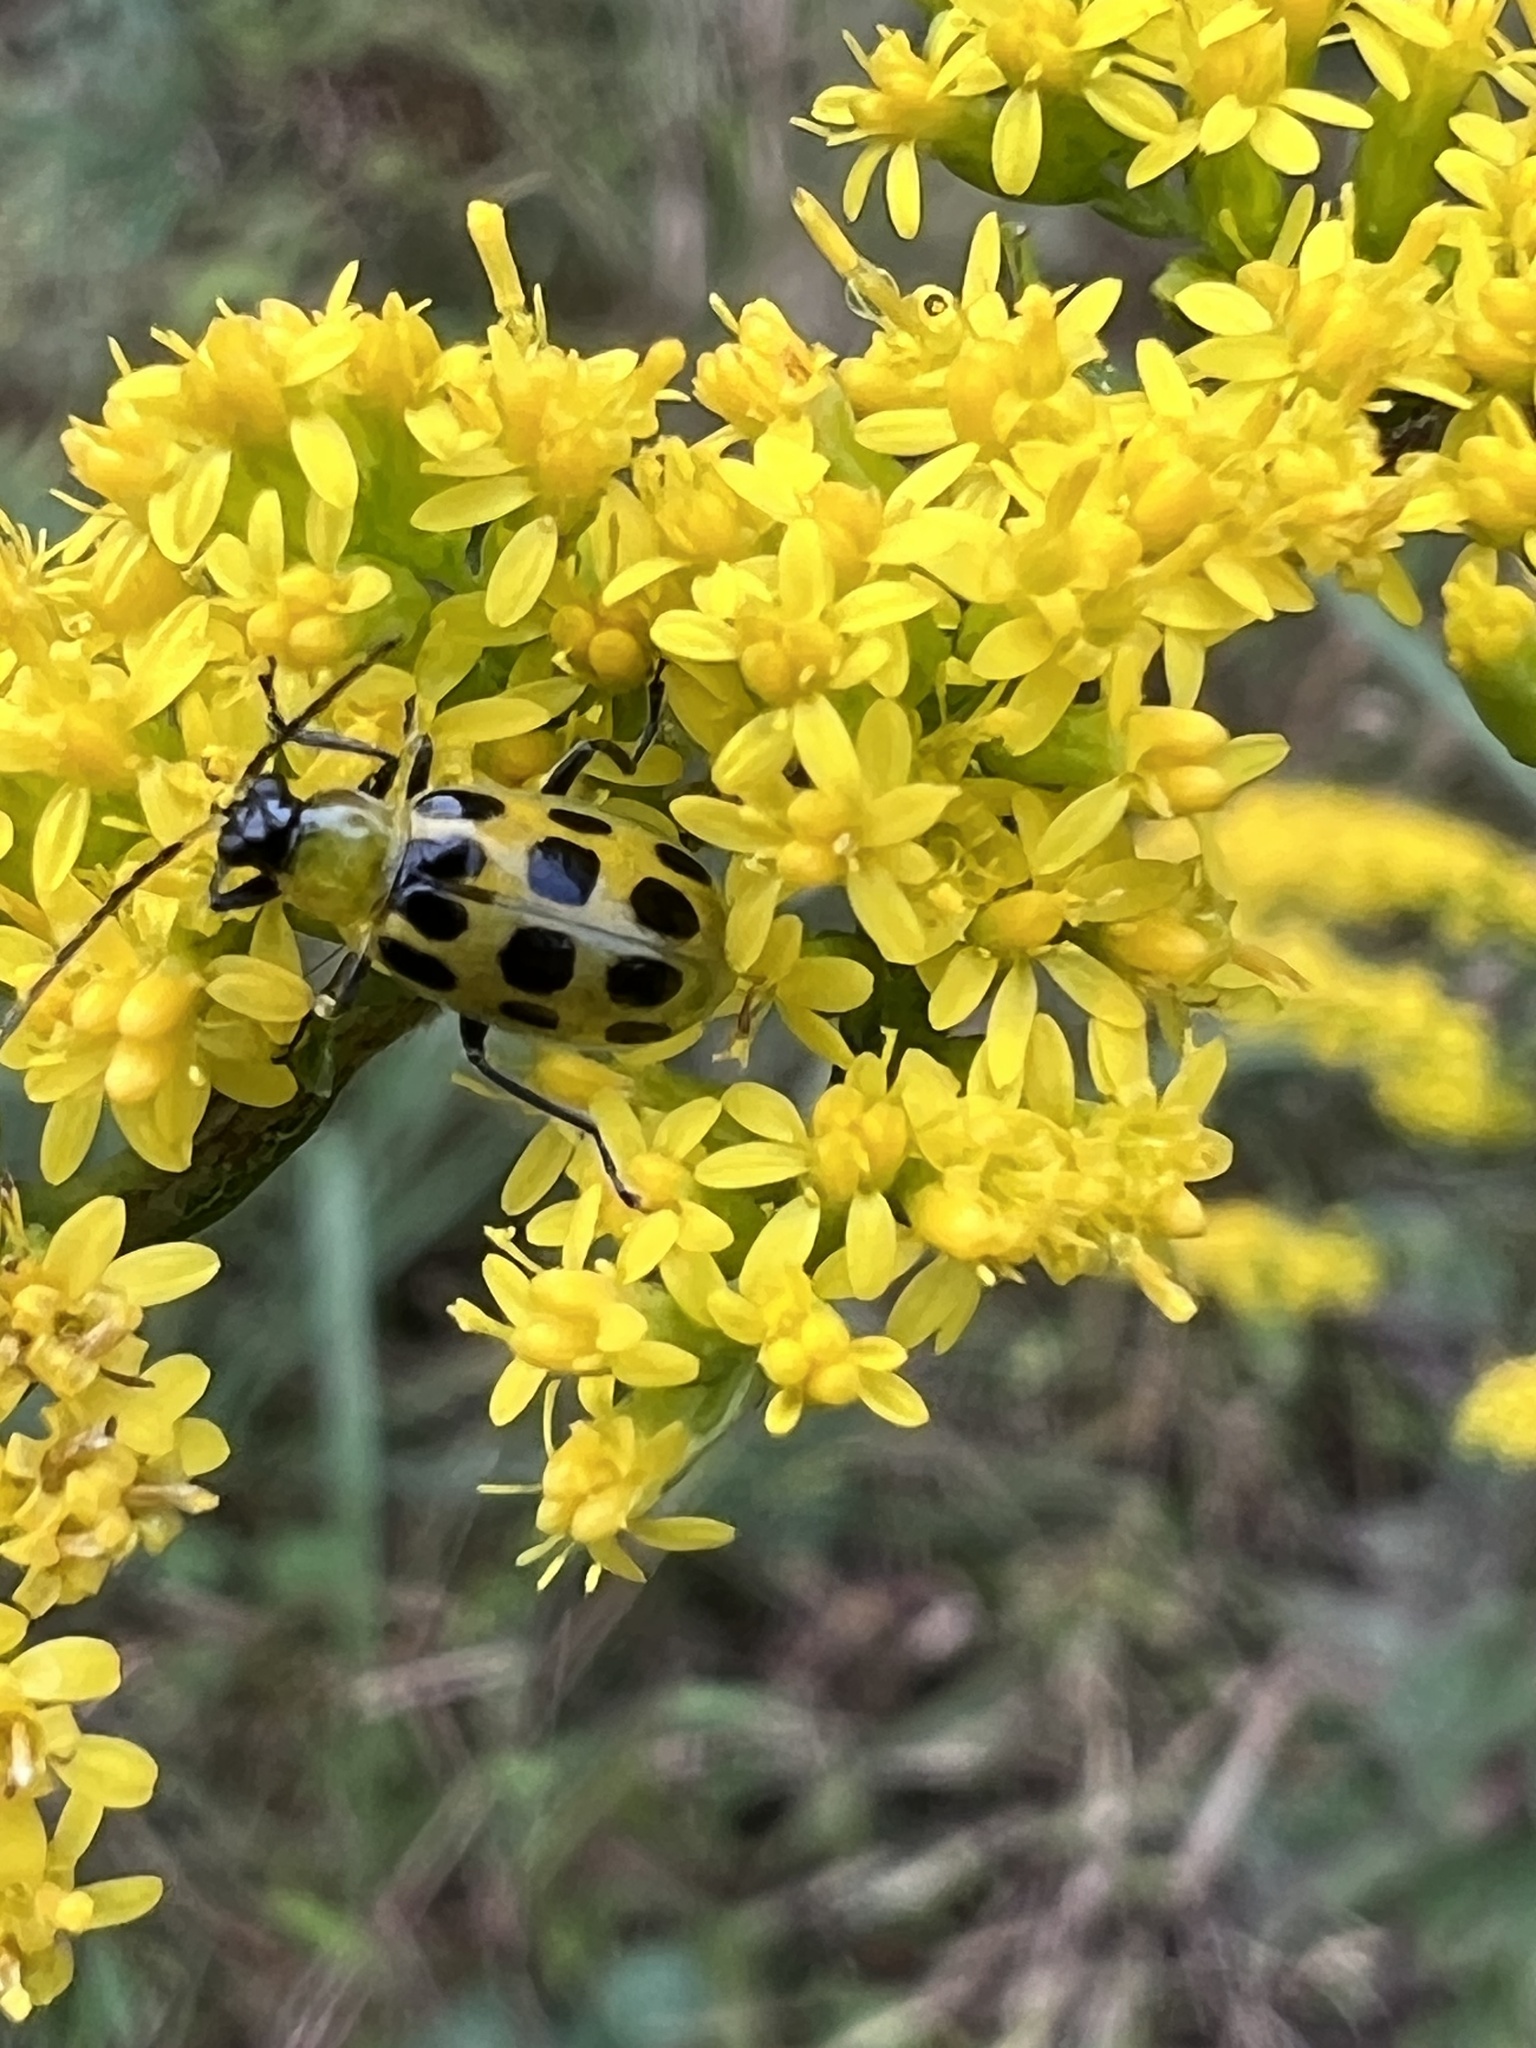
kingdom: Animalia
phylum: Arthropoda
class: Insecta
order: Coleoptera
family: Chrysomelidae
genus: Diabrotica
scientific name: Diabrotica undecimpunctata
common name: Spotted cucumber beetle
